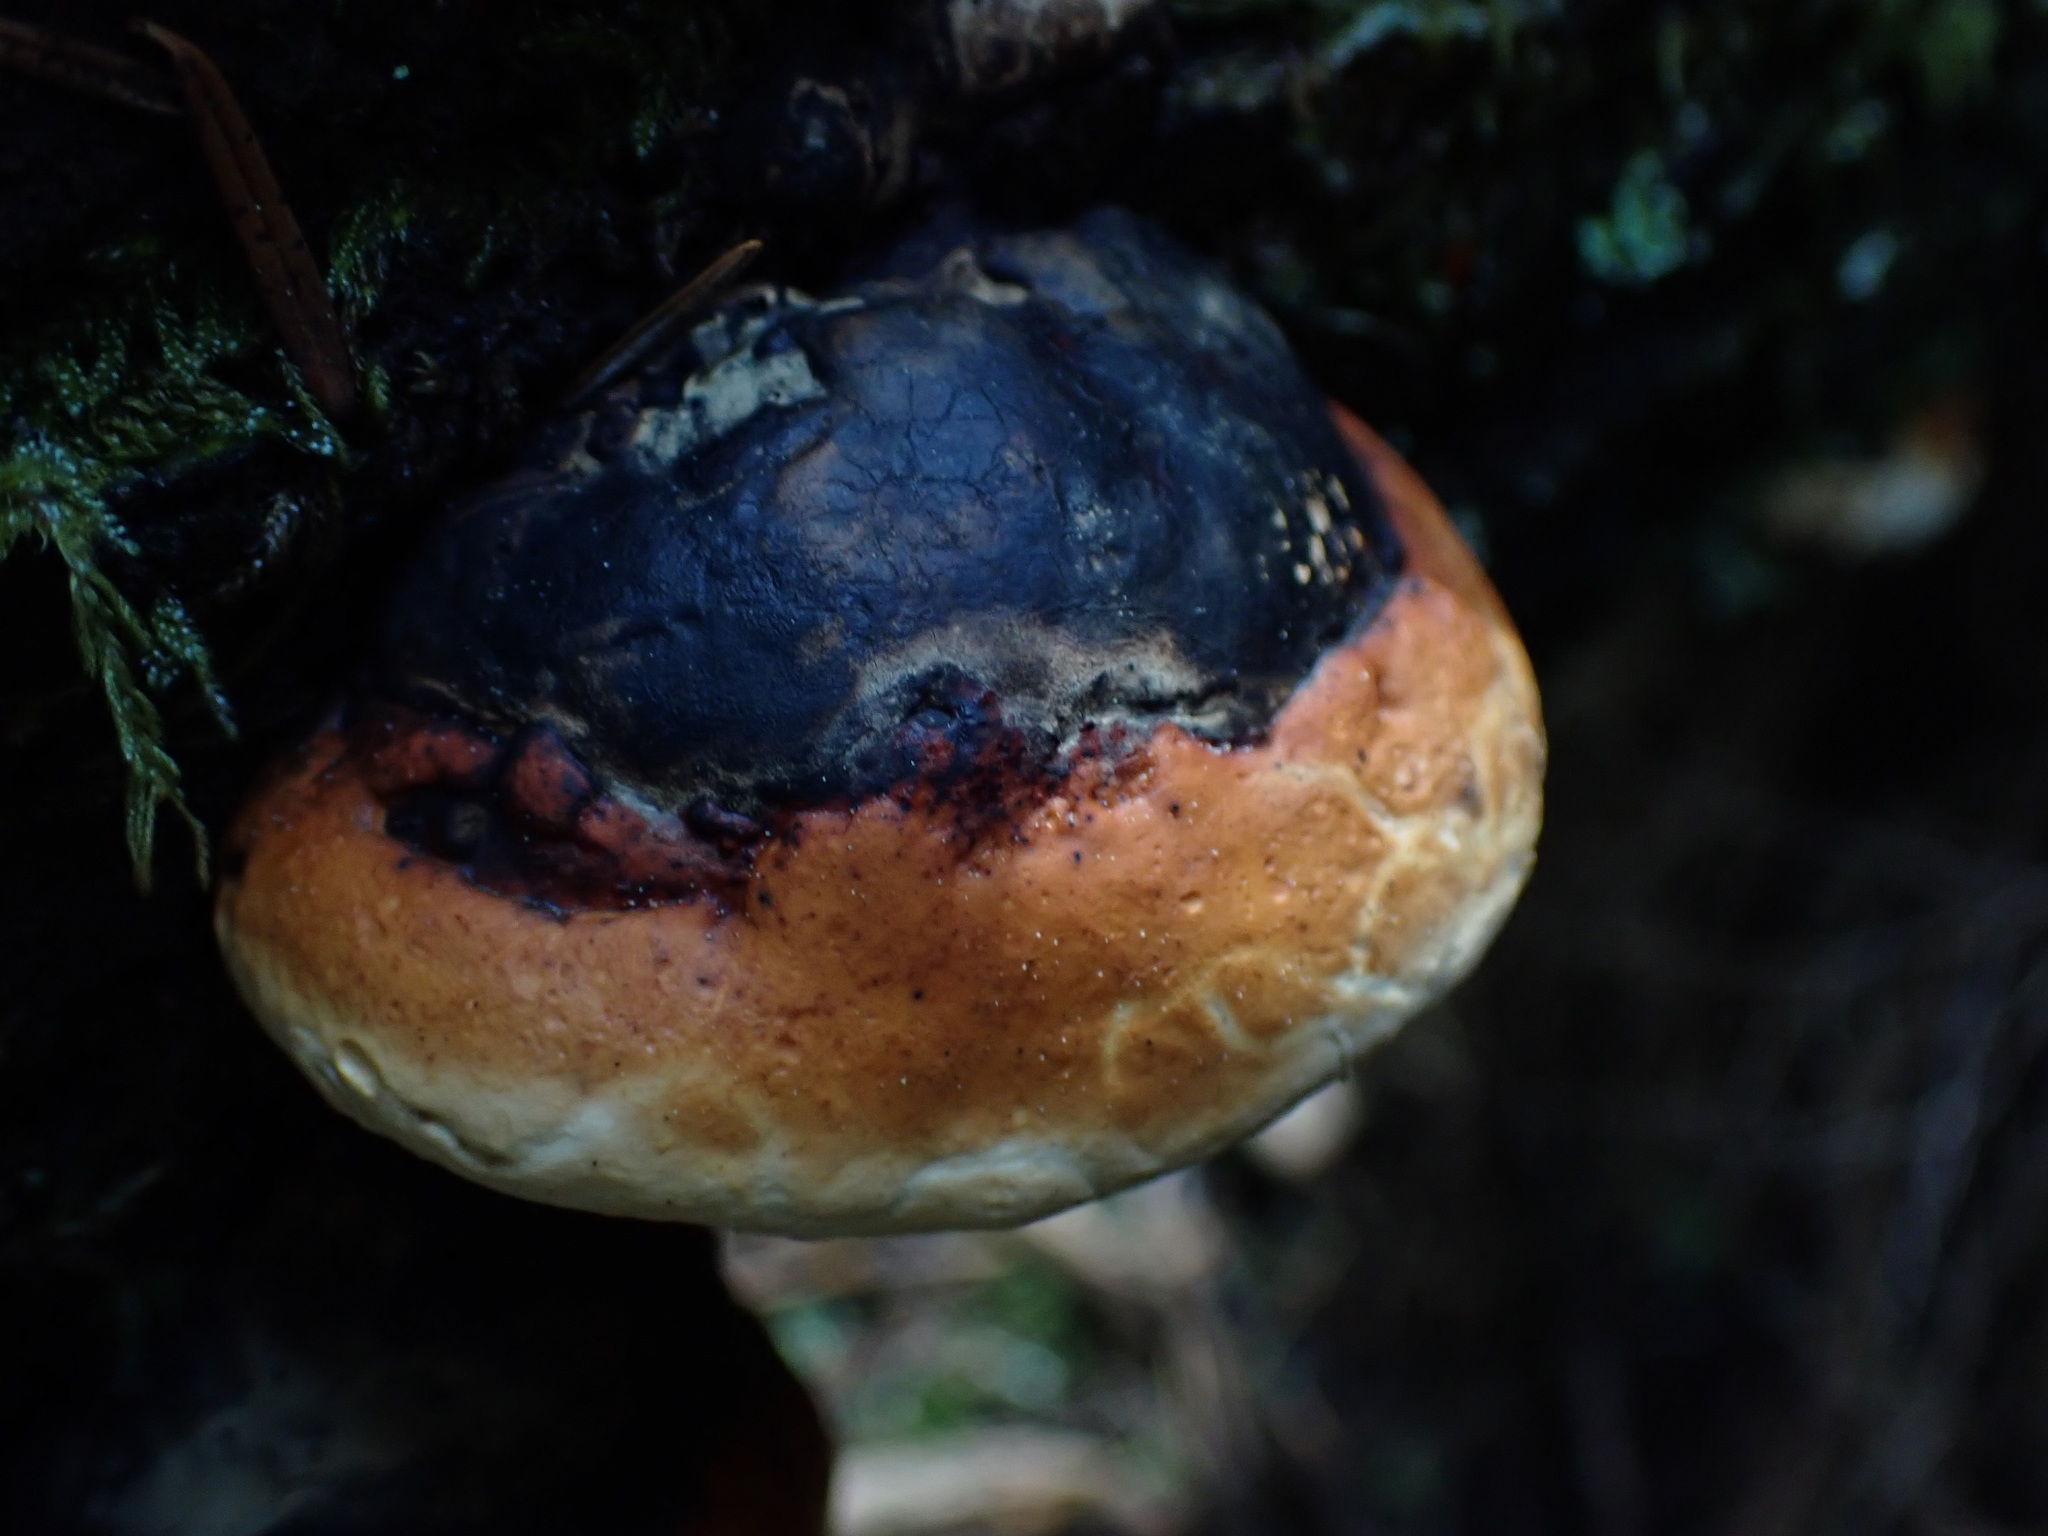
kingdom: Fungi
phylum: Basidiomycota
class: Agaricomycetes
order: Polyporales
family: Fomitopsidaceae
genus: Fomitopsis
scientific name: Fomitopsis mounceae
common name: Northern red belt
